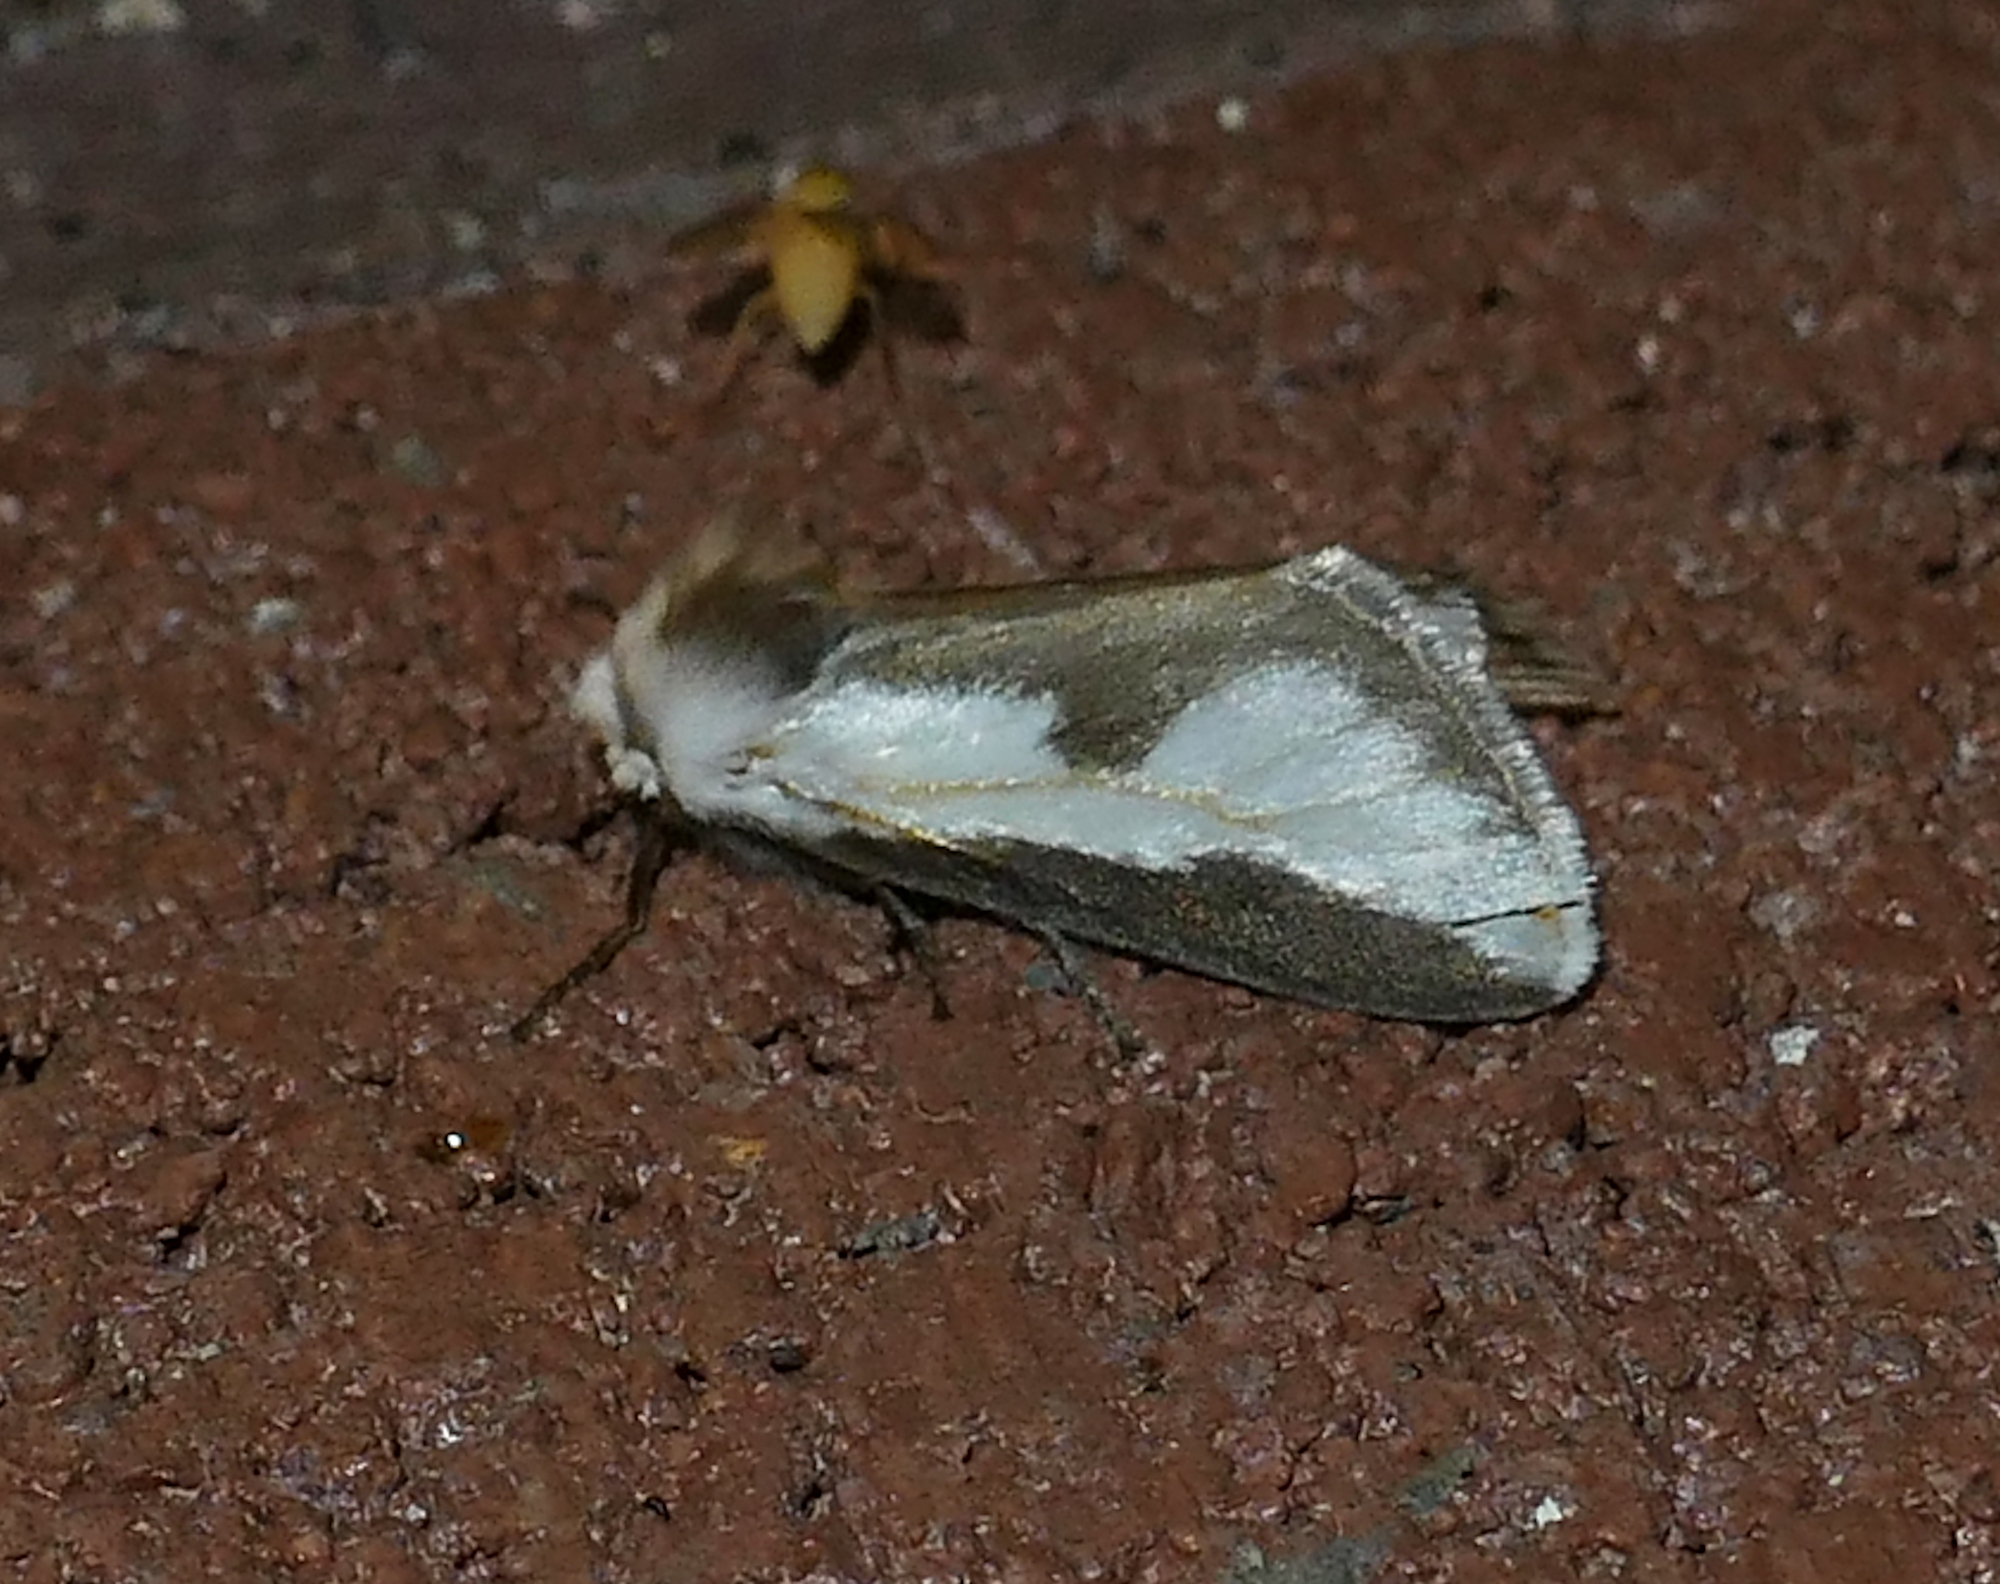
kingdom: Animalia
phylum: Arthropoda
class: Insecta
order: Lepidoptera
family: Megalopygidae
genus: Norape
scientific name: Norape tener
